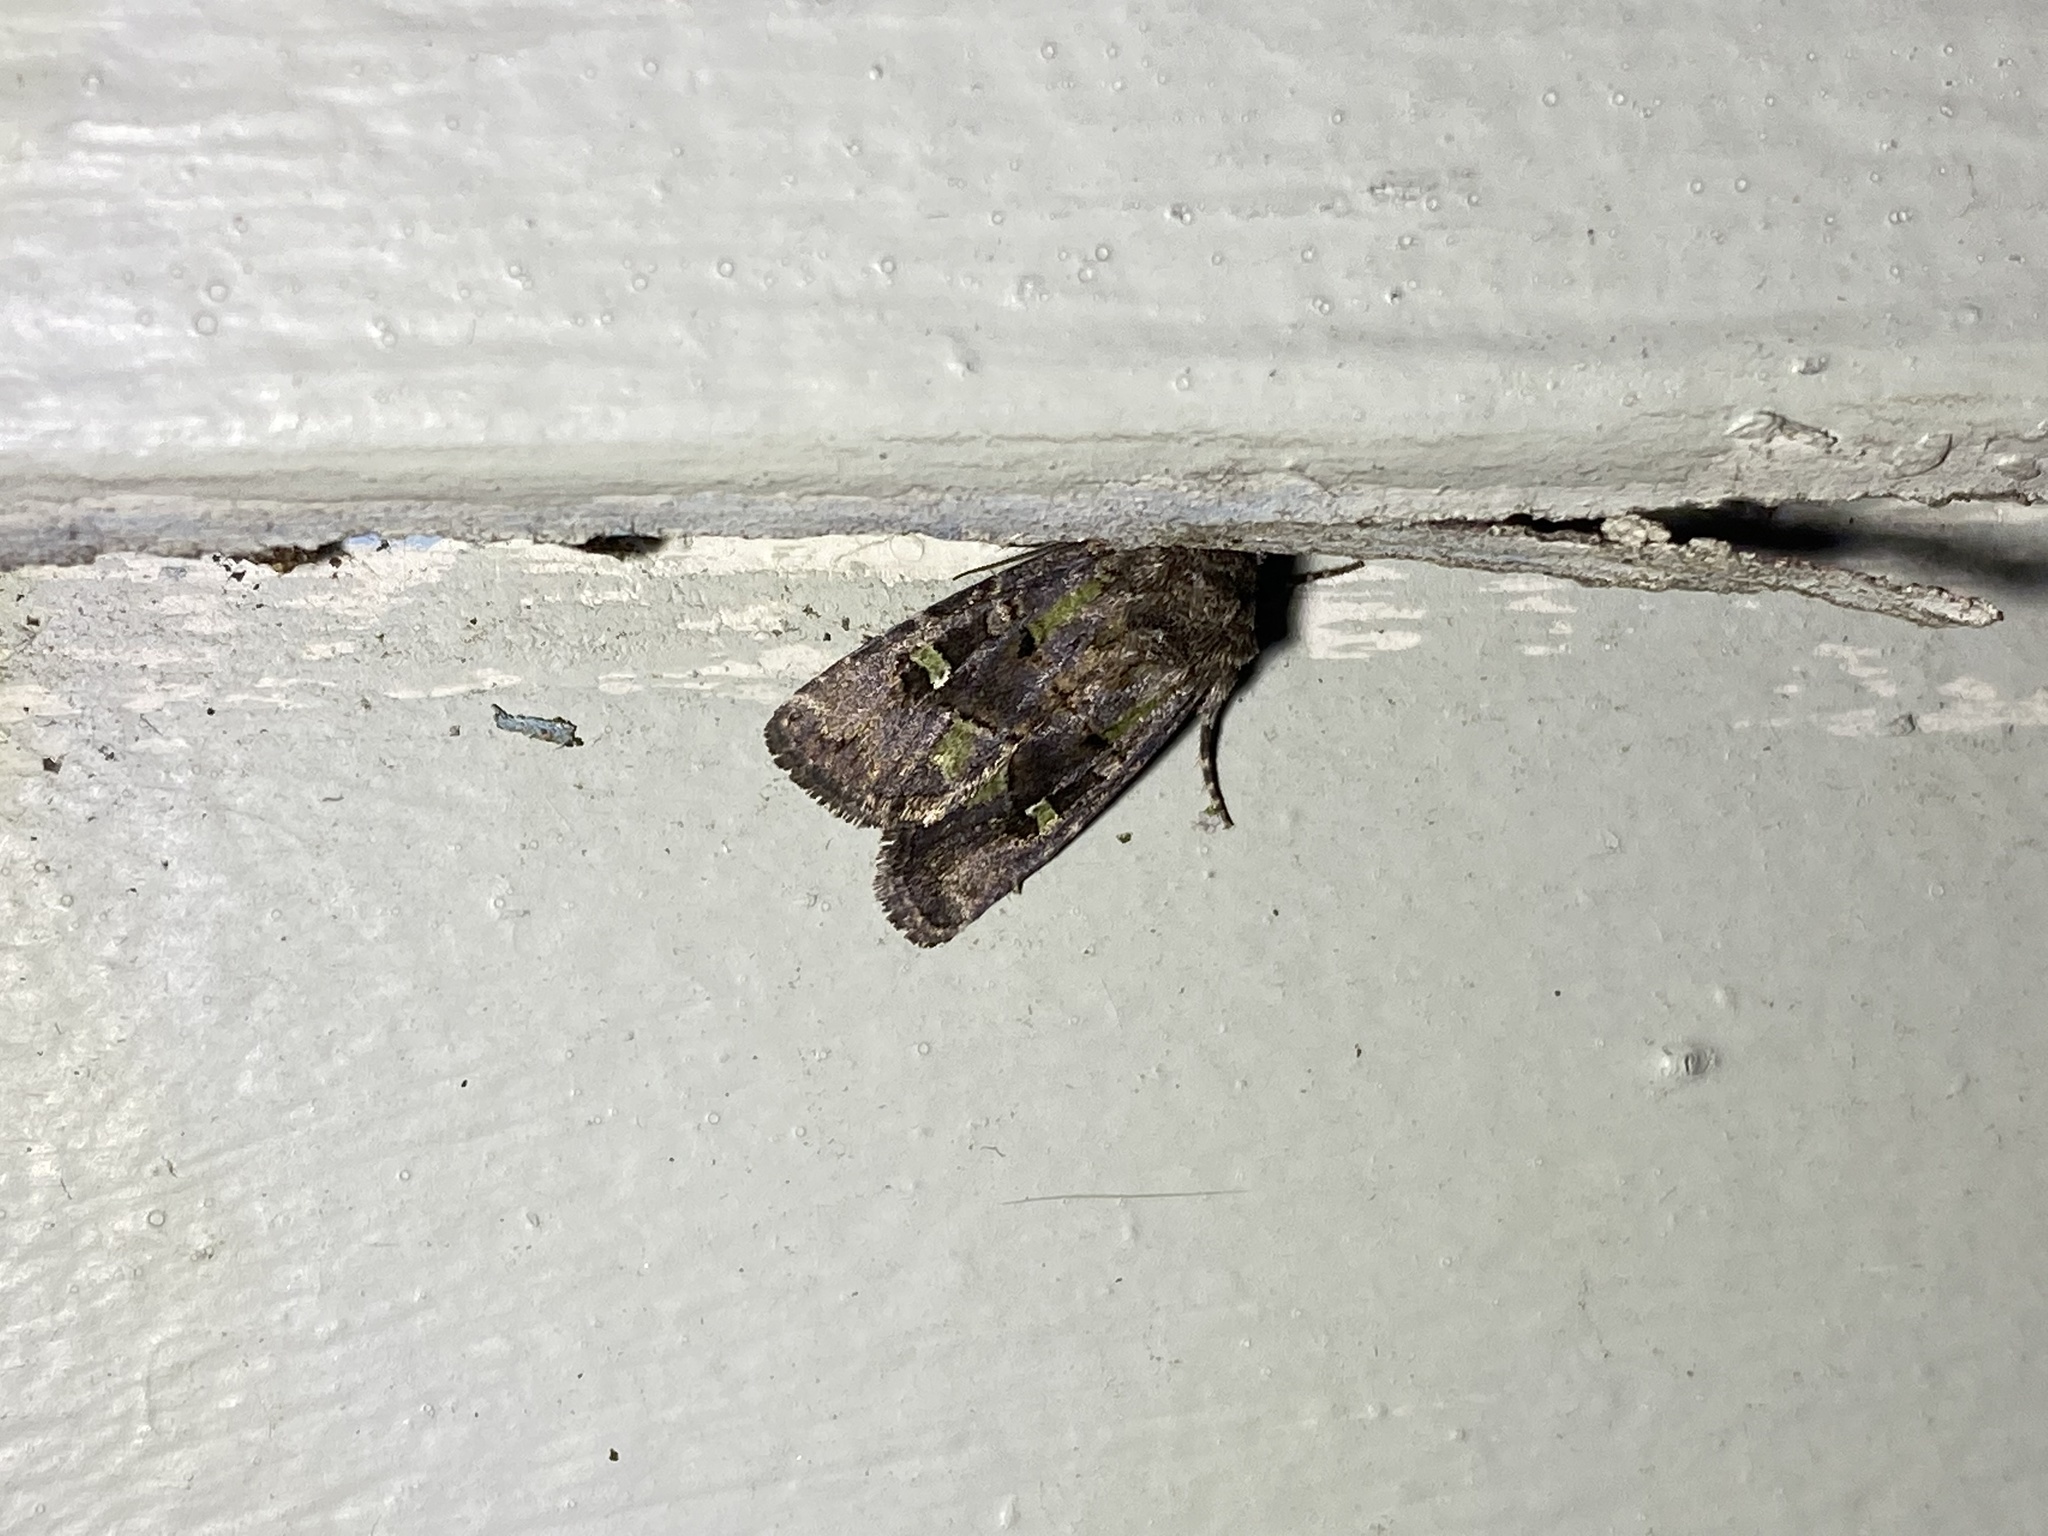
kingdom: Animalia
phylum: Arthropoda
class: Insecta
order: Lepidoptera
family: Noctuidae
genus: Lacinipolia
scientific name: Lacinipolia renigera
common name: Kidney-spotted minor
